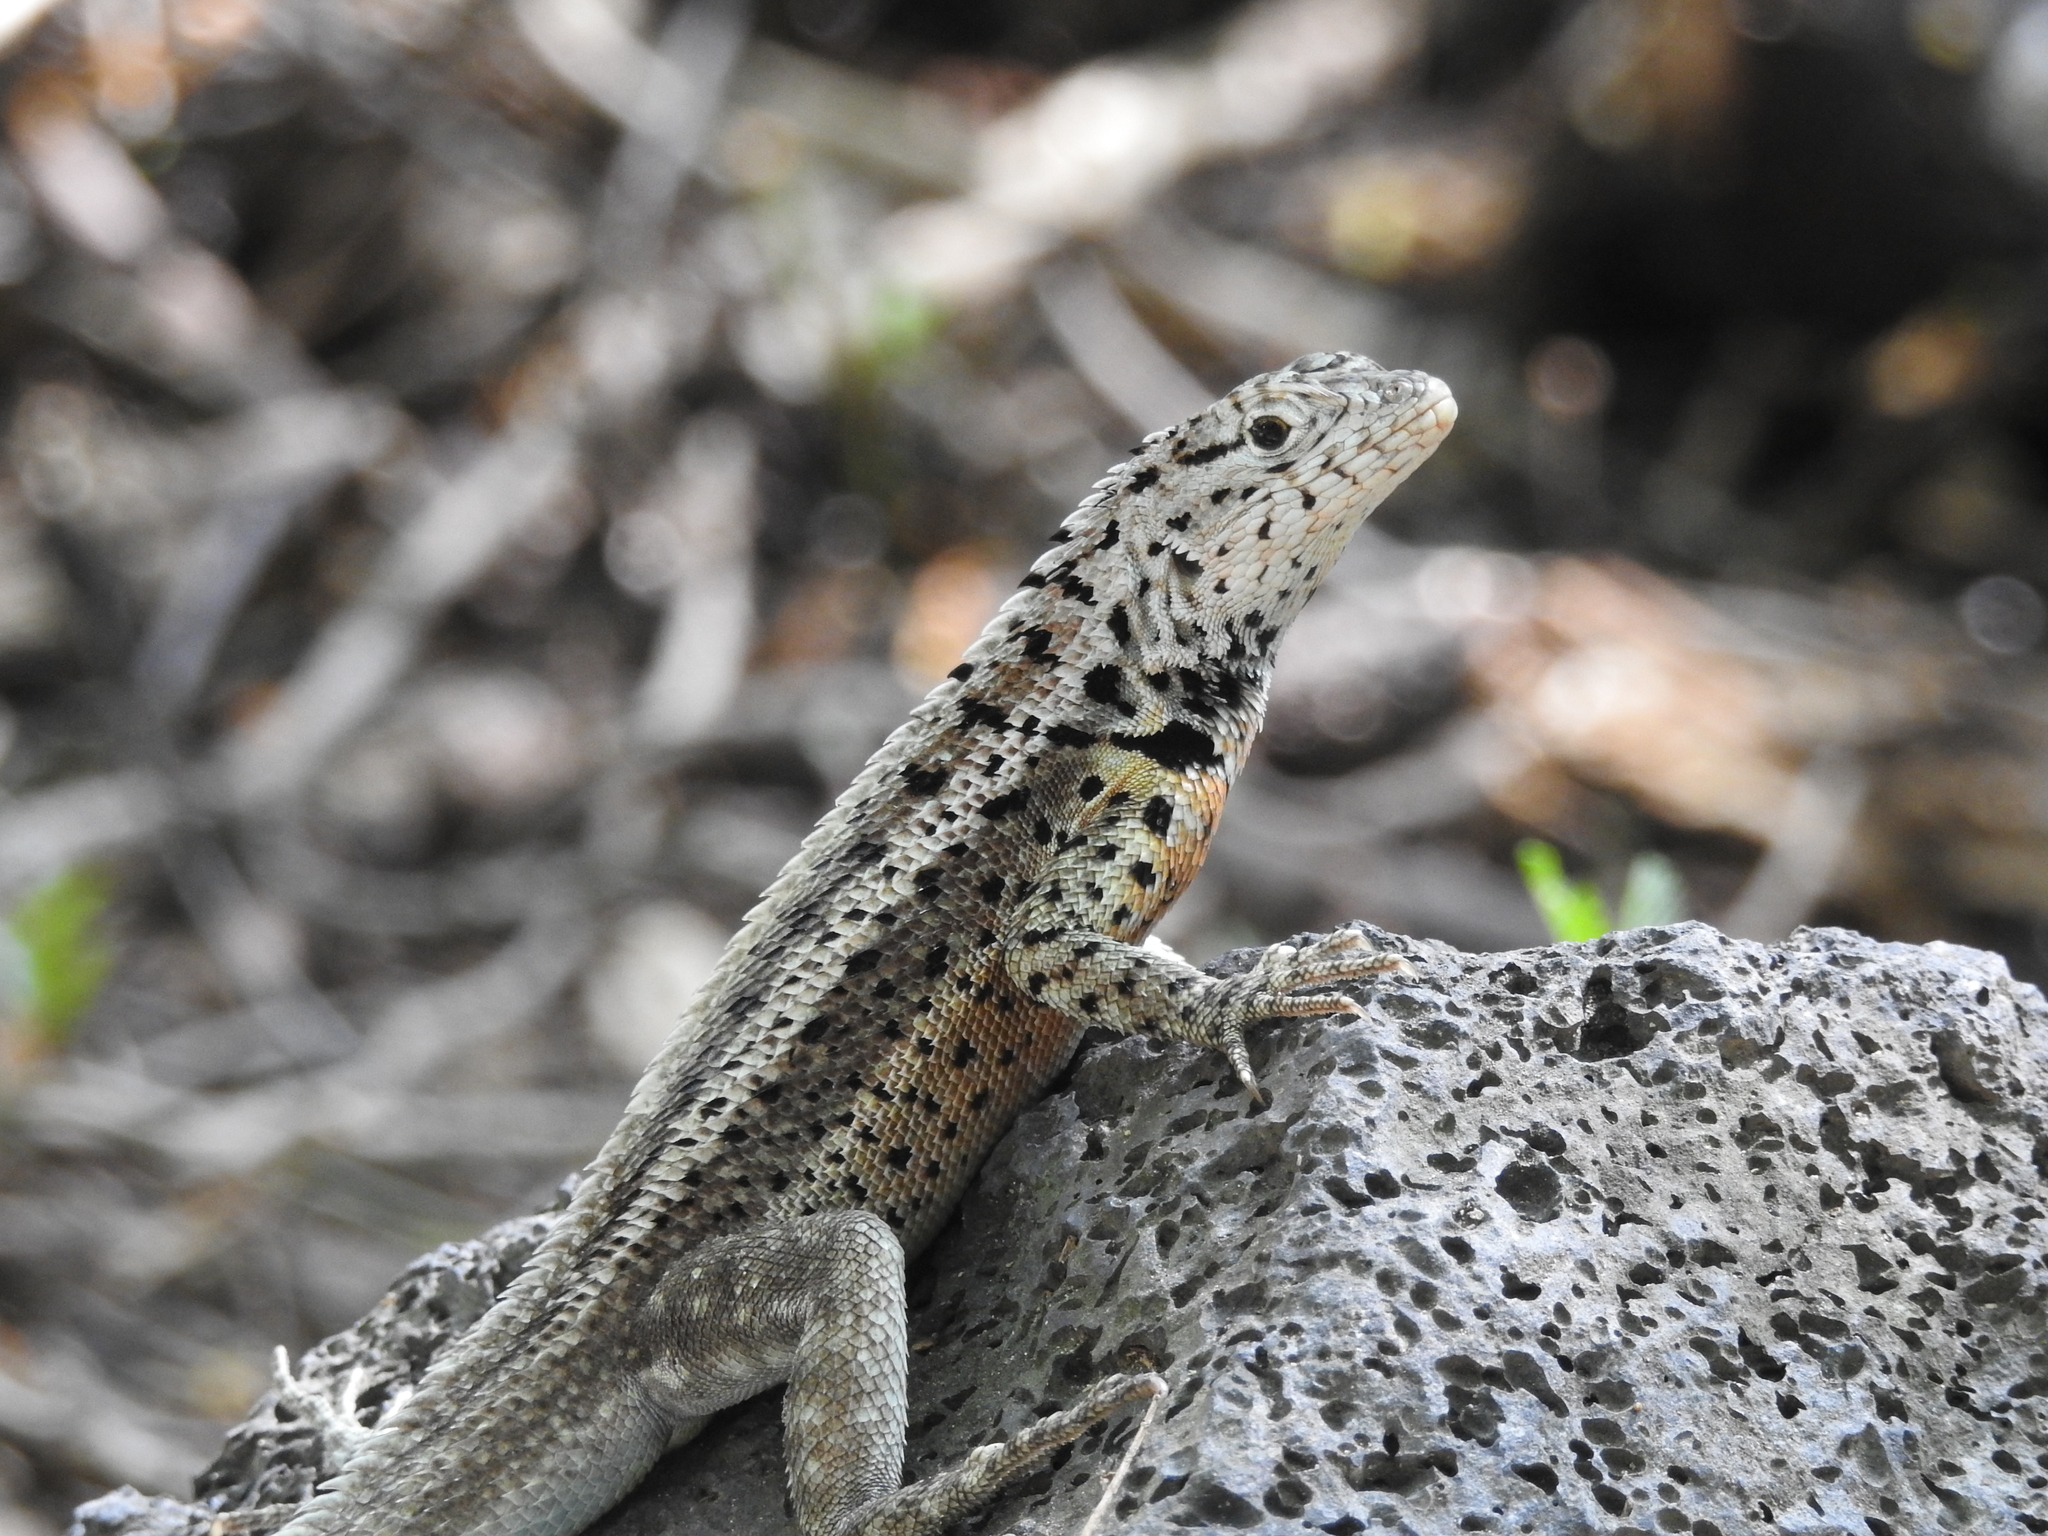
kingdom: Animalia
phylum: Chordata
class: Squamata
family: Tropiduridae
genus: Microlophus
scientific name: Microlophus albemarlensis
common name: Galapagos lava lizard
